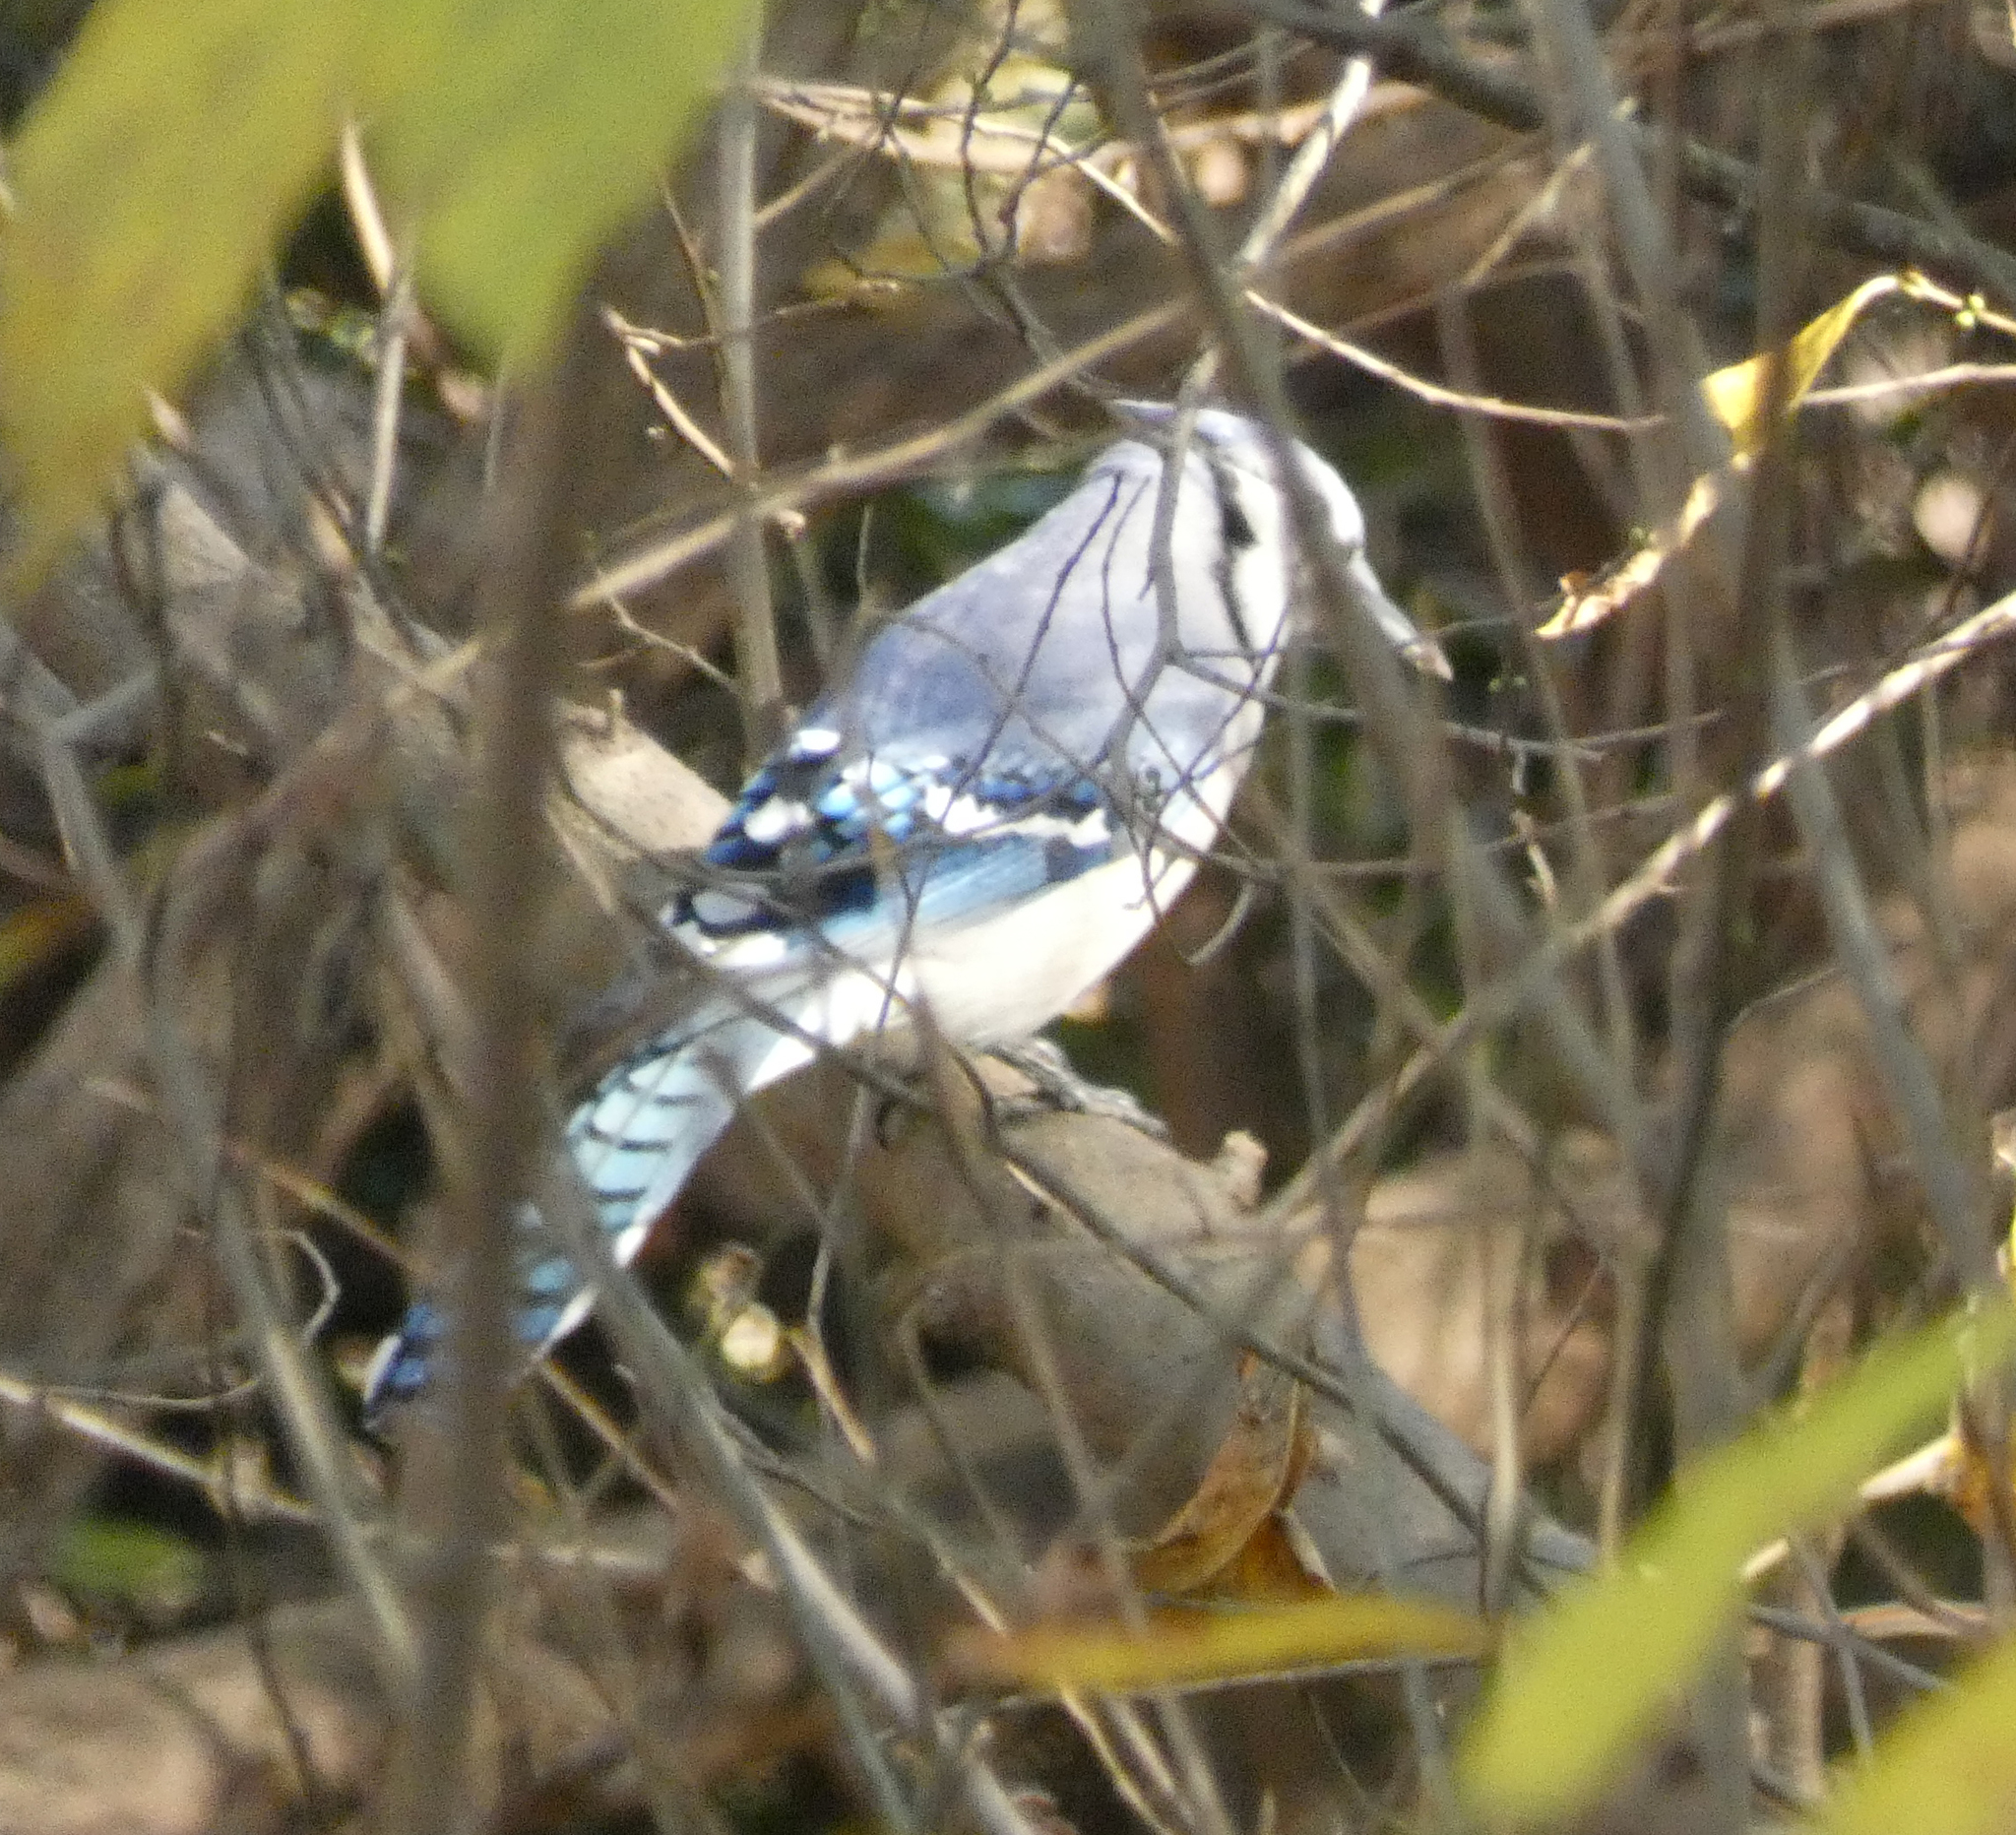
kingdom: Animalia
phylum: Chordata
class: Aves
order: Passeriformes
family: Corvidae
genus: Cyanocitta
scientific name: Cyanocitta cristata
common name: Blue jay
